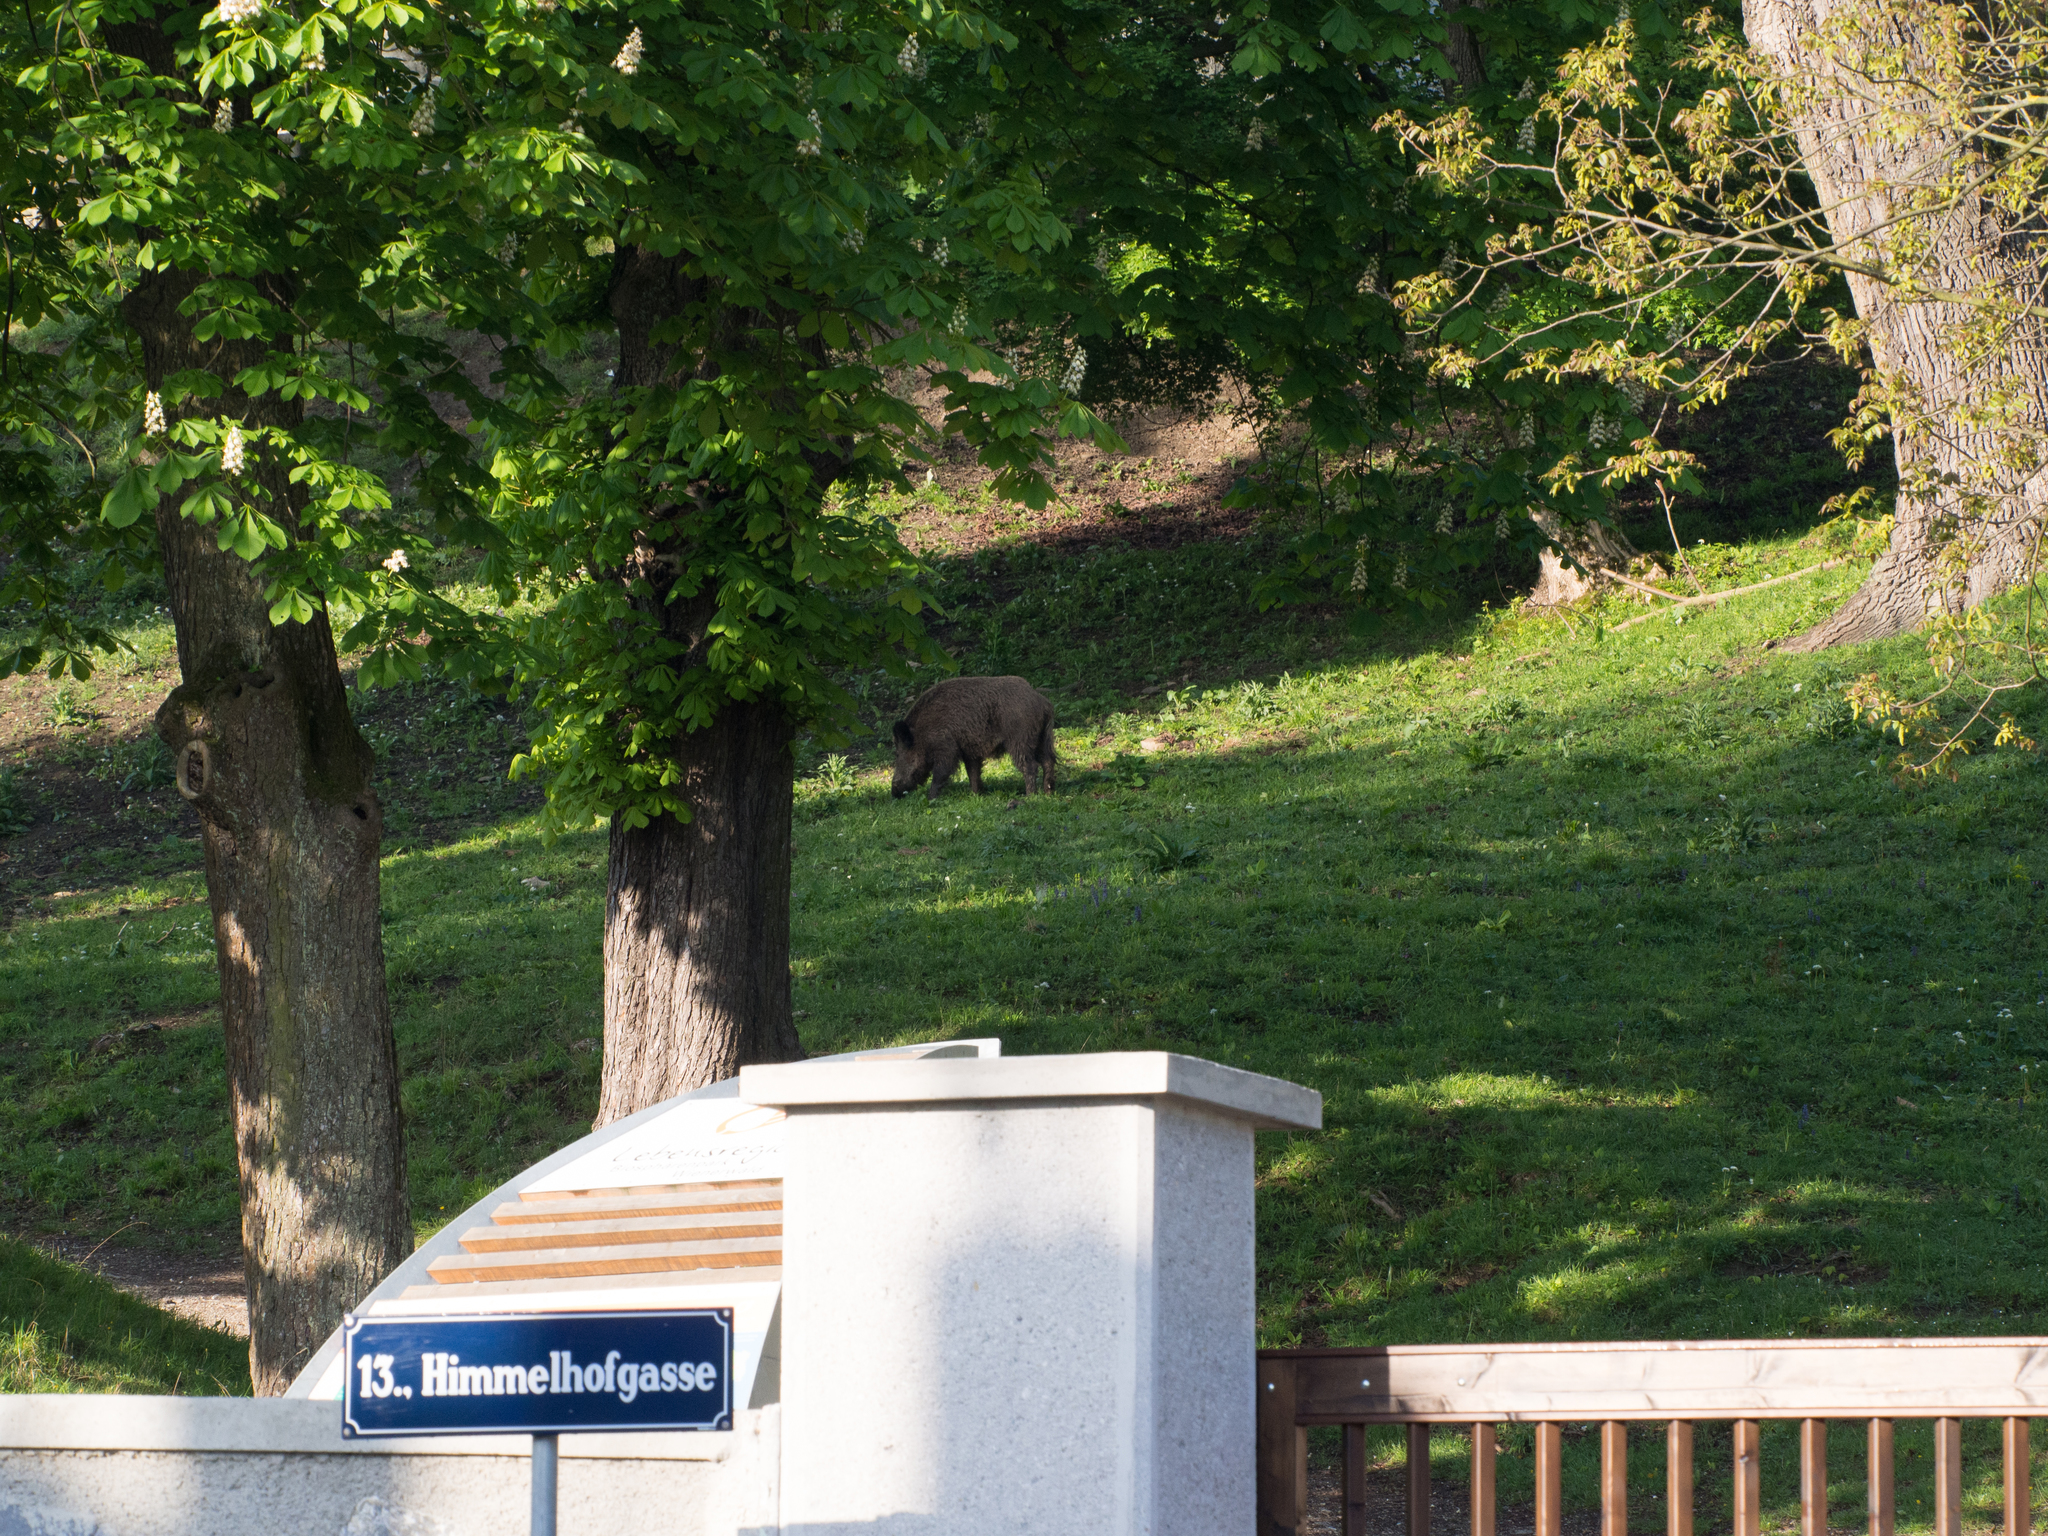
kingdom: Animalia
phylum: Chordata
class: Mammalia
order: Artiodactyla
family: Suidae
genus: Sus
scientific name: Sus scrofa
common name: Wild boar
